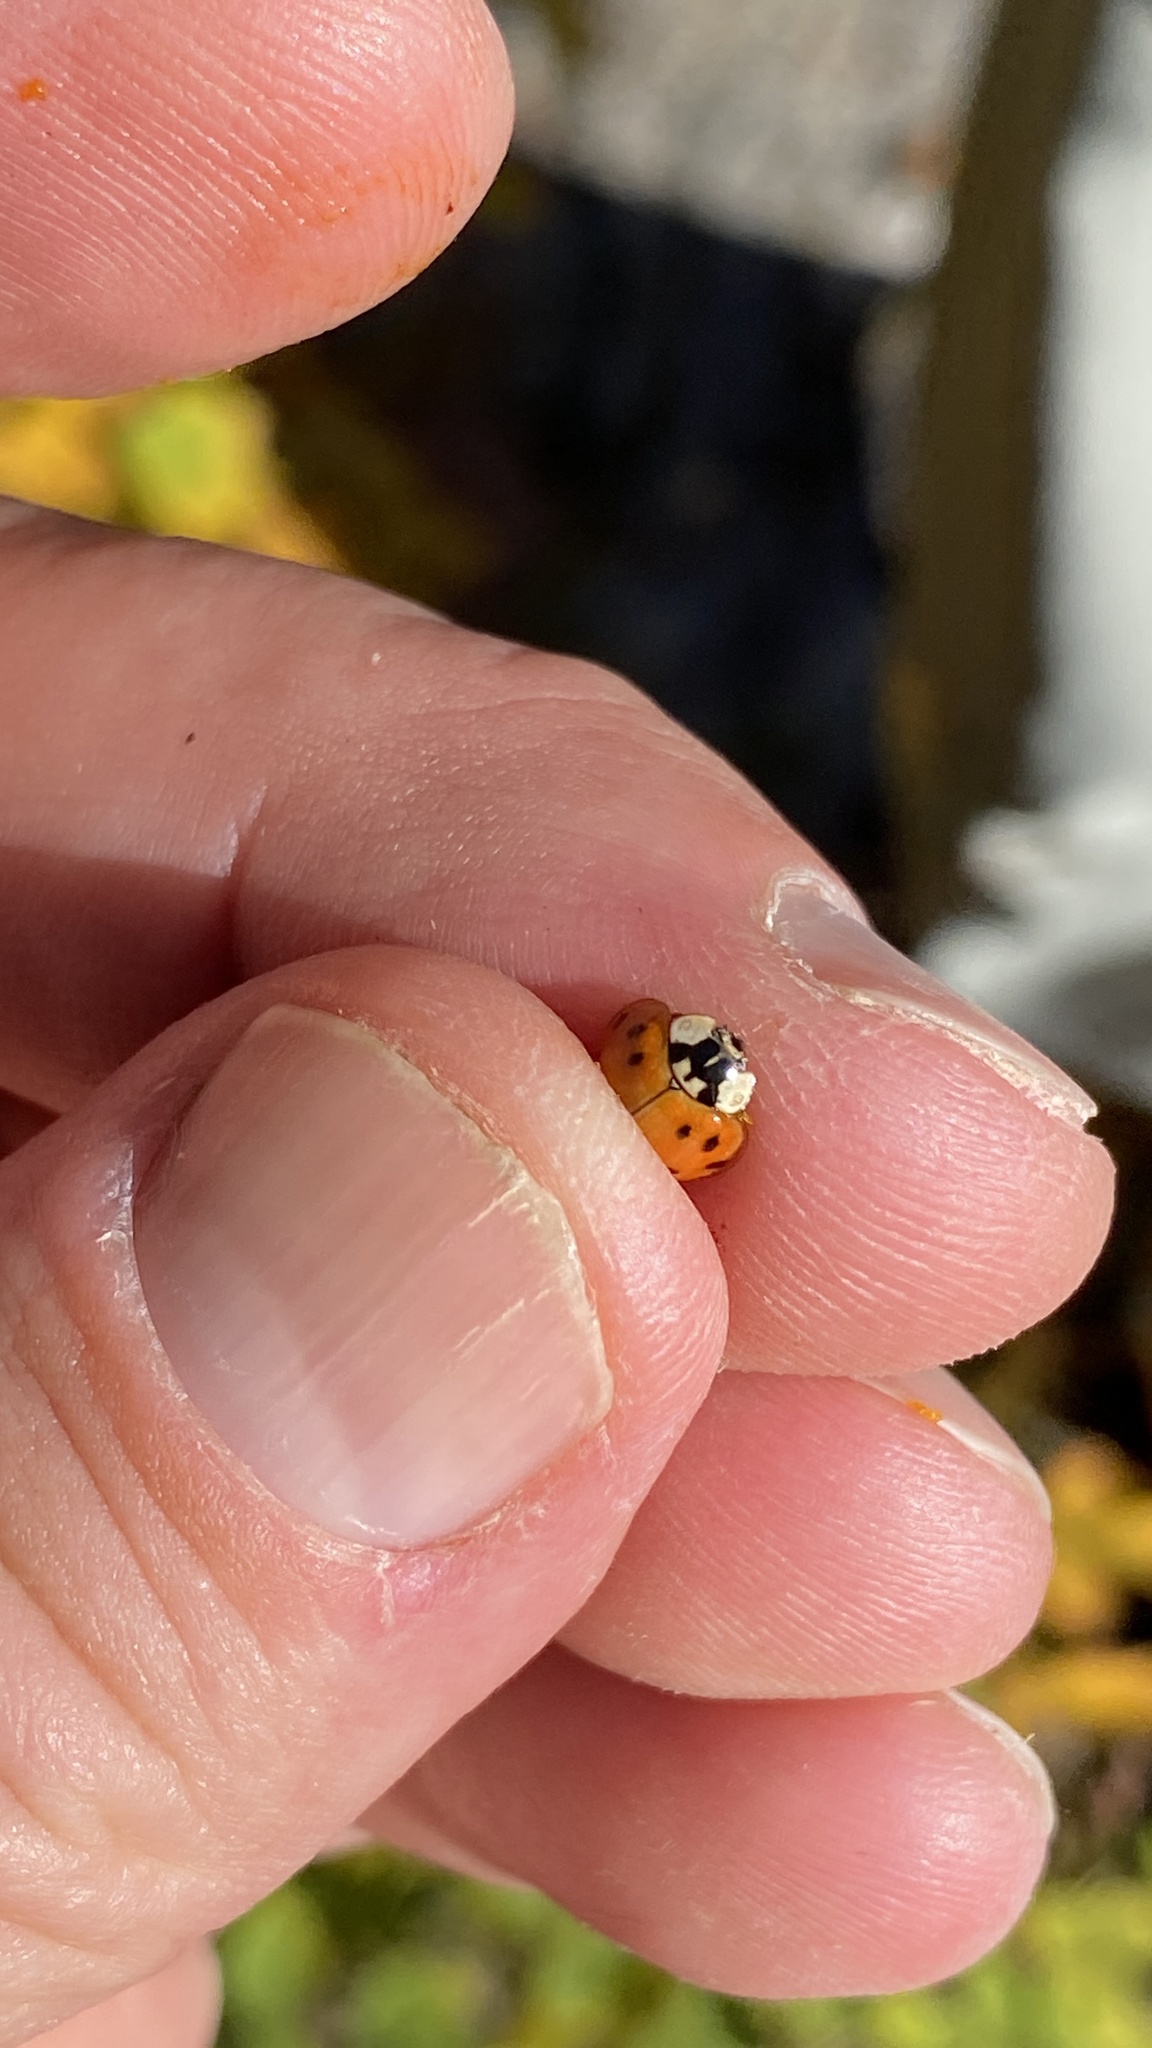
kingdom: Animalia
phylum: Arthropoda
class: Insecta
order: Coleoptera
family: Coccinellidae
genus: Harmonia
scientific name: Harmonia axyridis
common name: Harlequin ladybird
